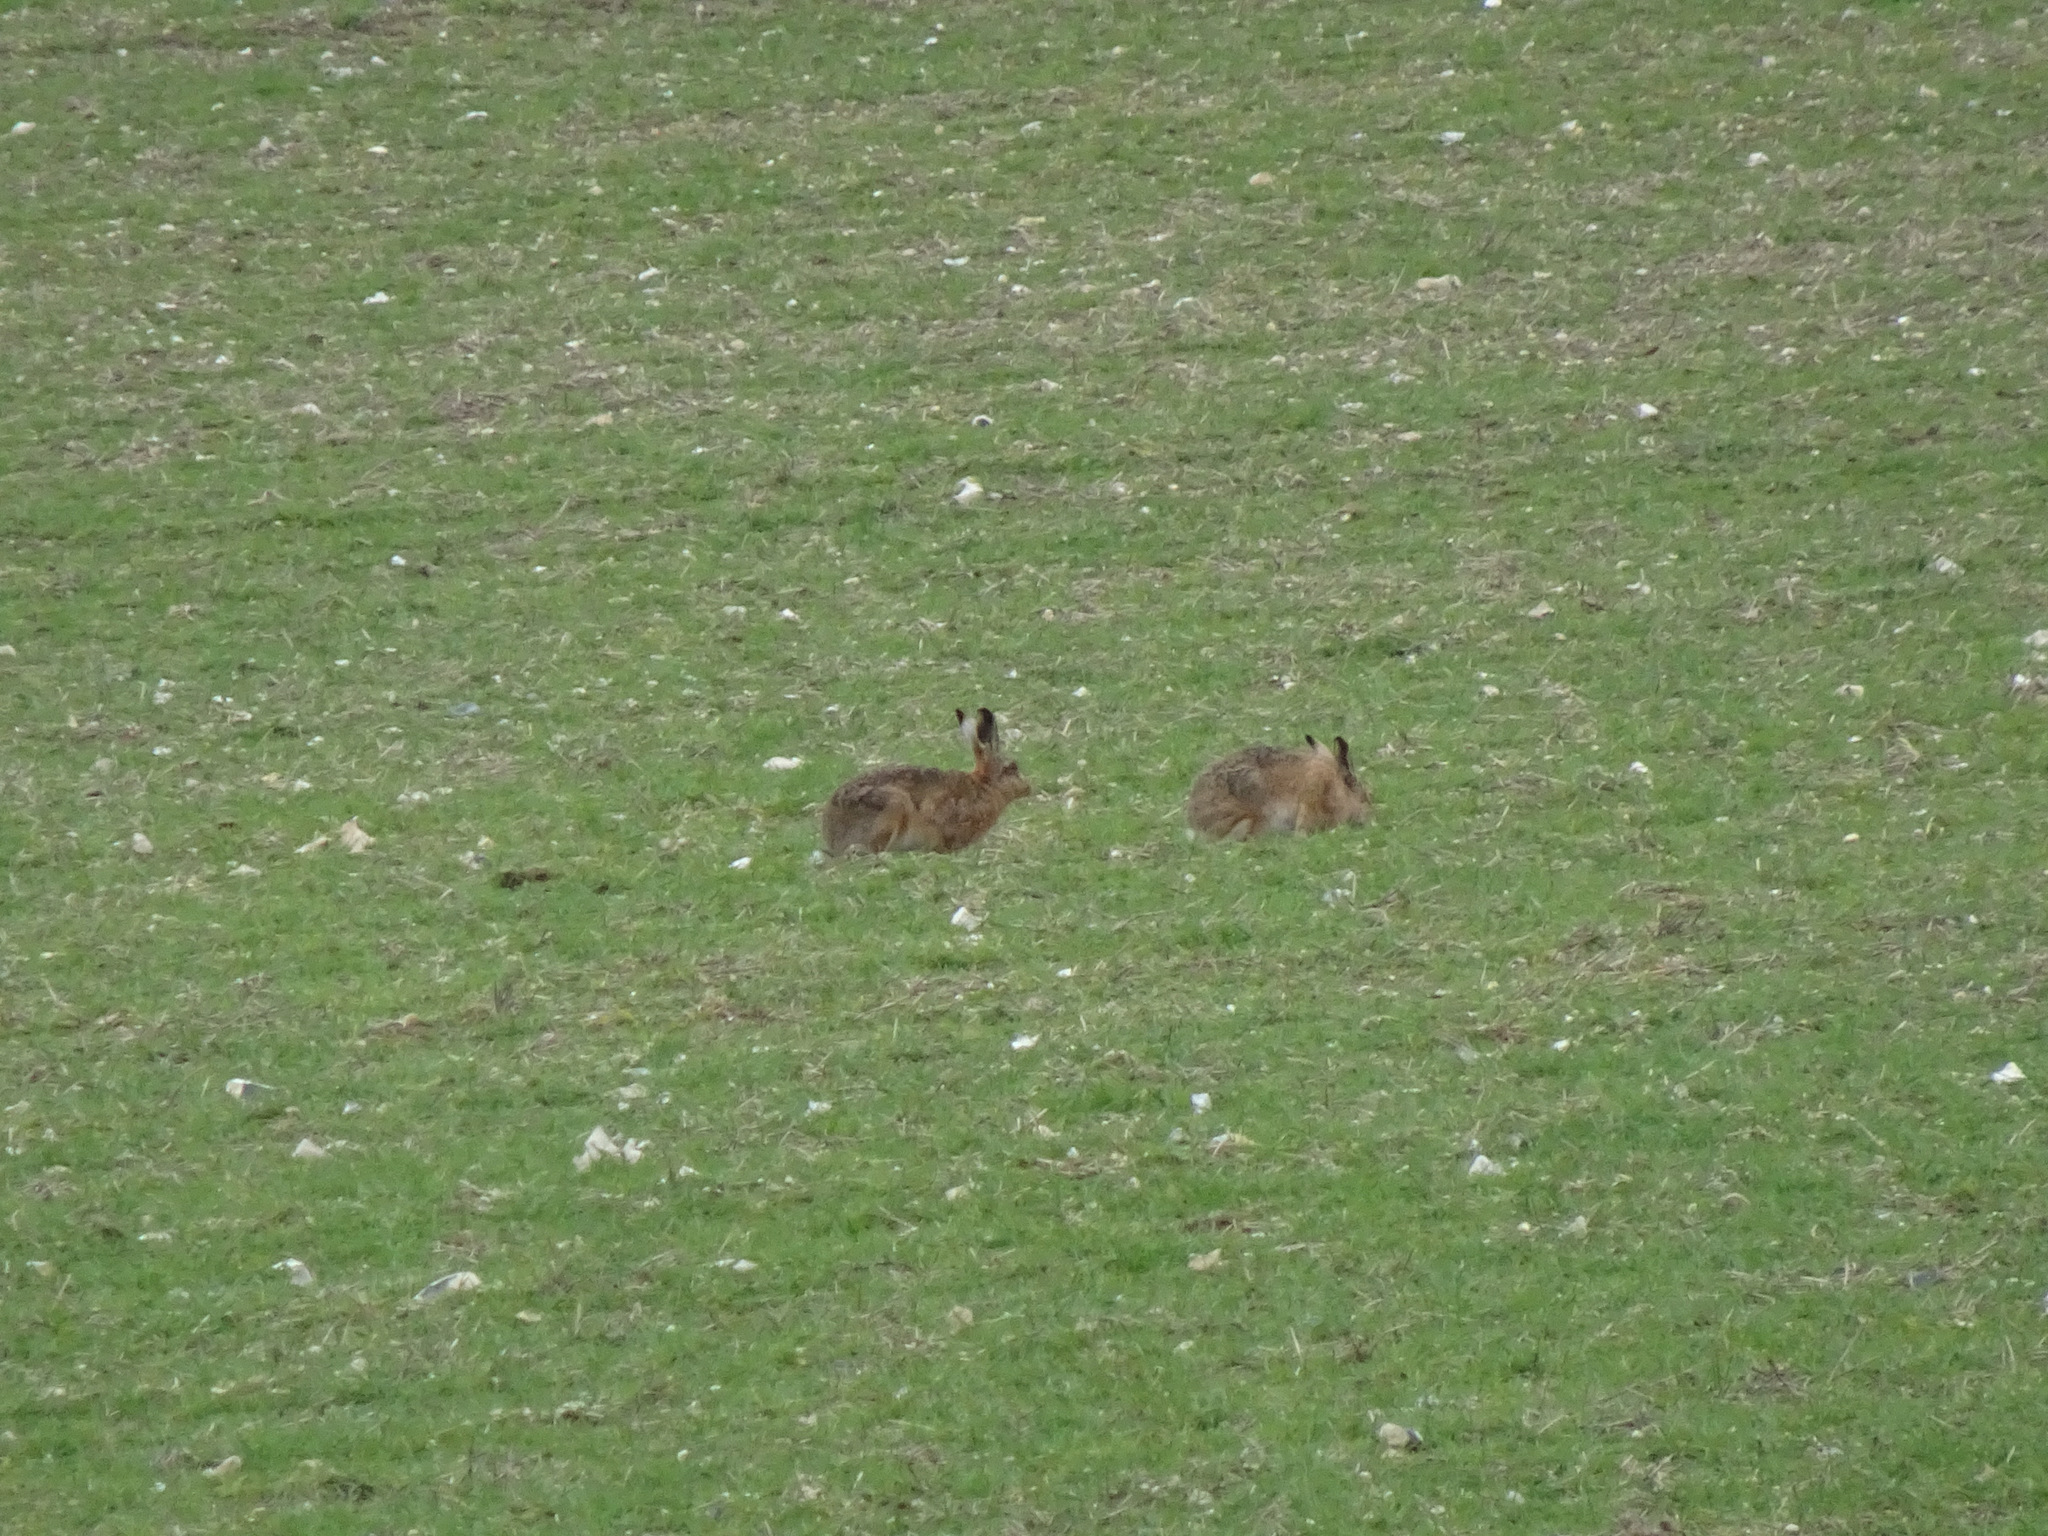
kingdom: Animalia
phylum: Chordata
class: Mammalia
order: Lagomorpha
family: Leporidae
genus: Lepus
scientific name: Lepus europaeus
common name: European hare
